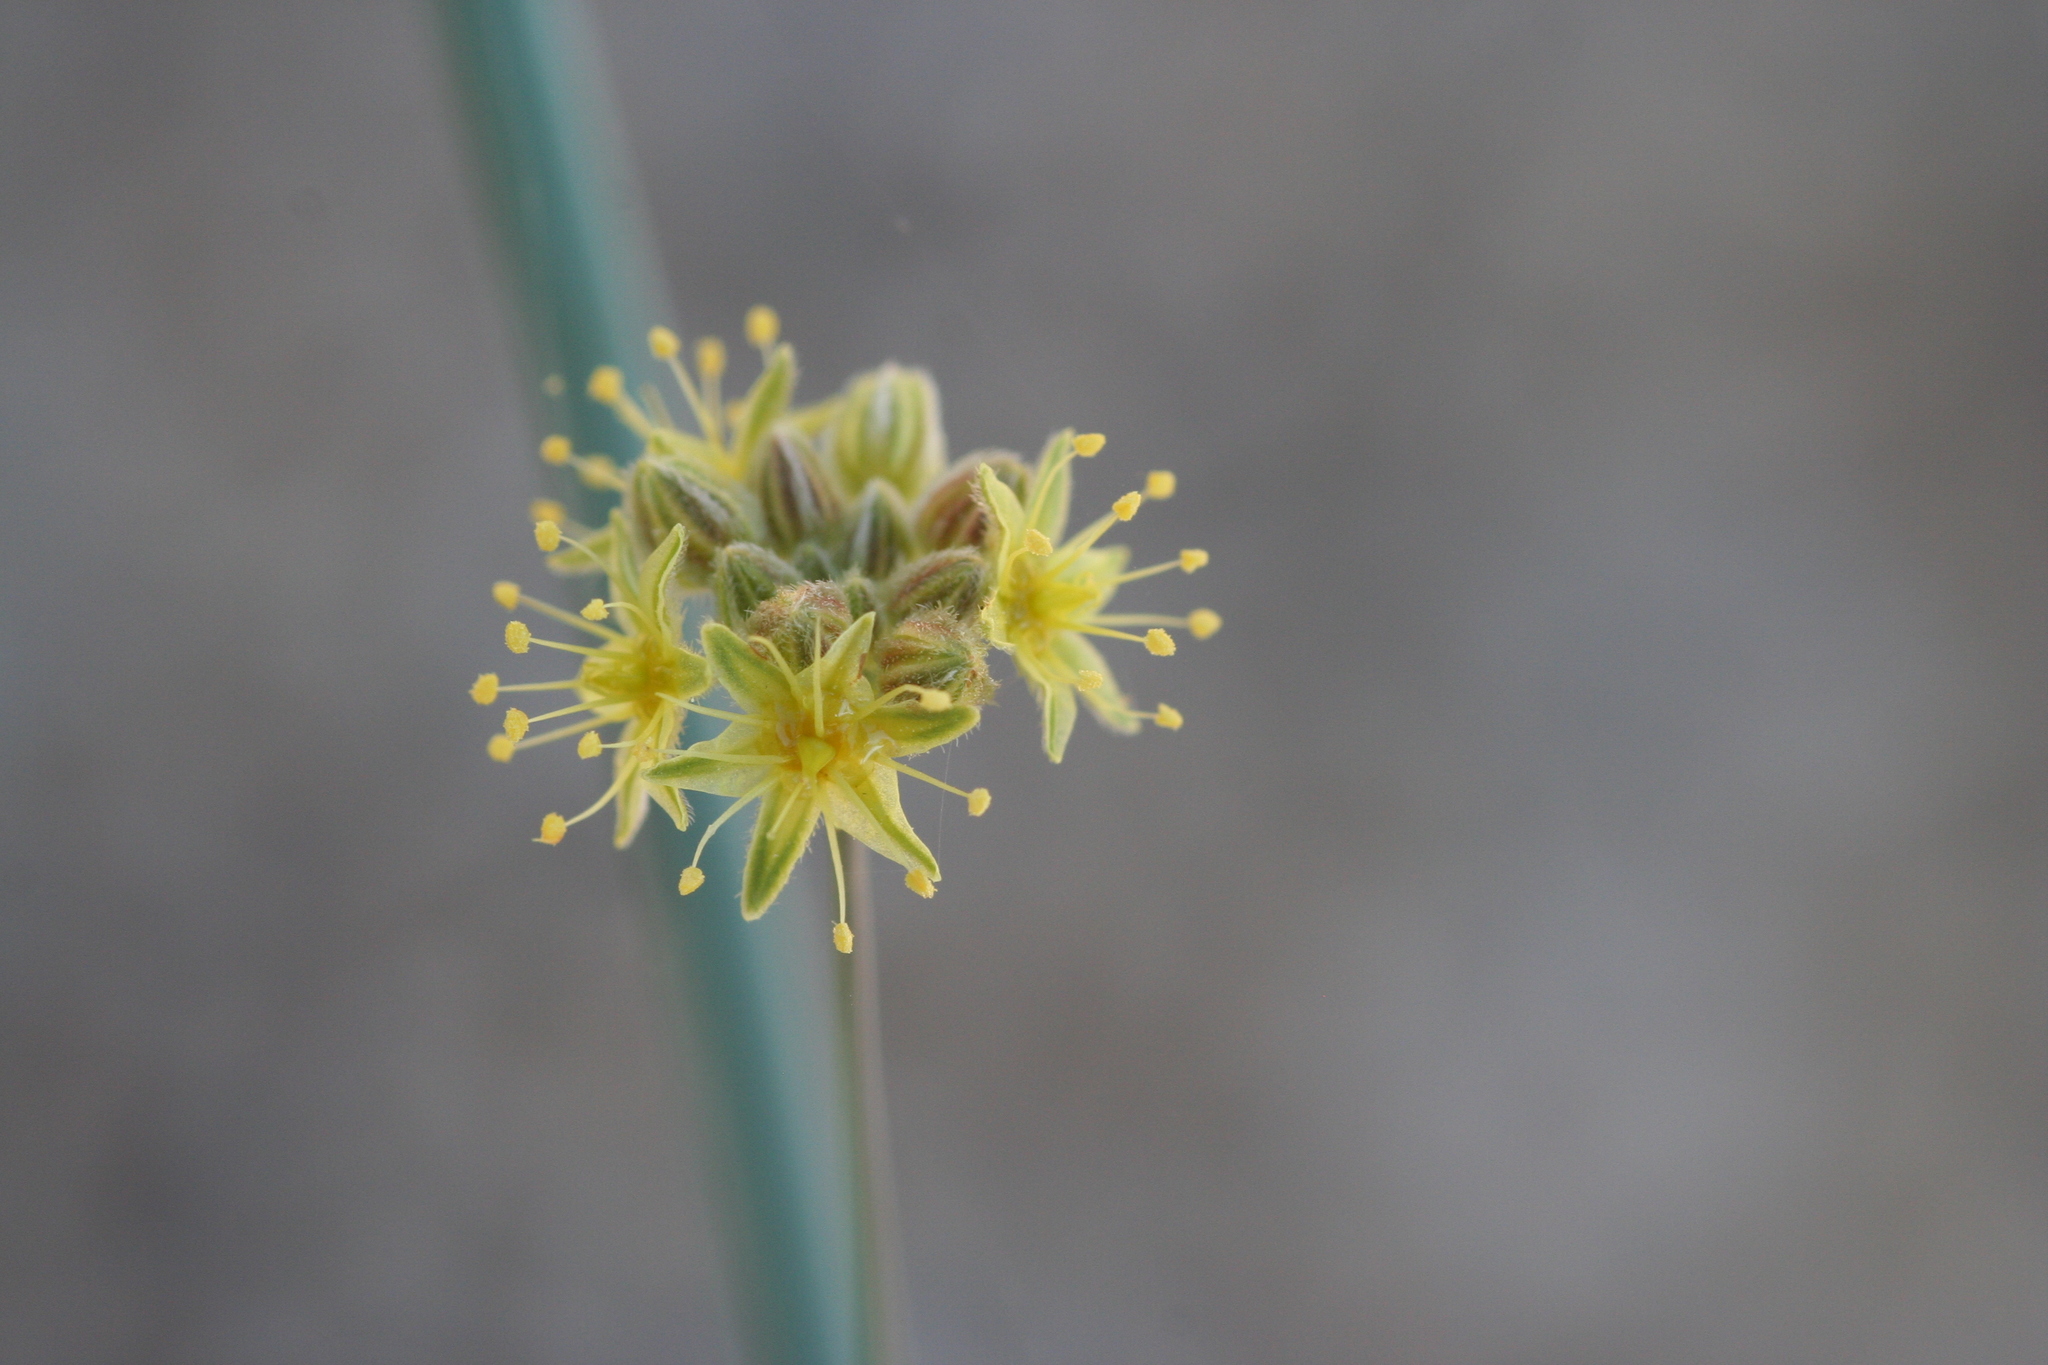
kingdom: Plantae
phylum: Tracheophyta
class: Magnoliopsida
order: Caryophyllales
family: Polygonaceae
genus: Eriogonum
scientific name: Eriogonum inflatum
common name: Desert trumpet
